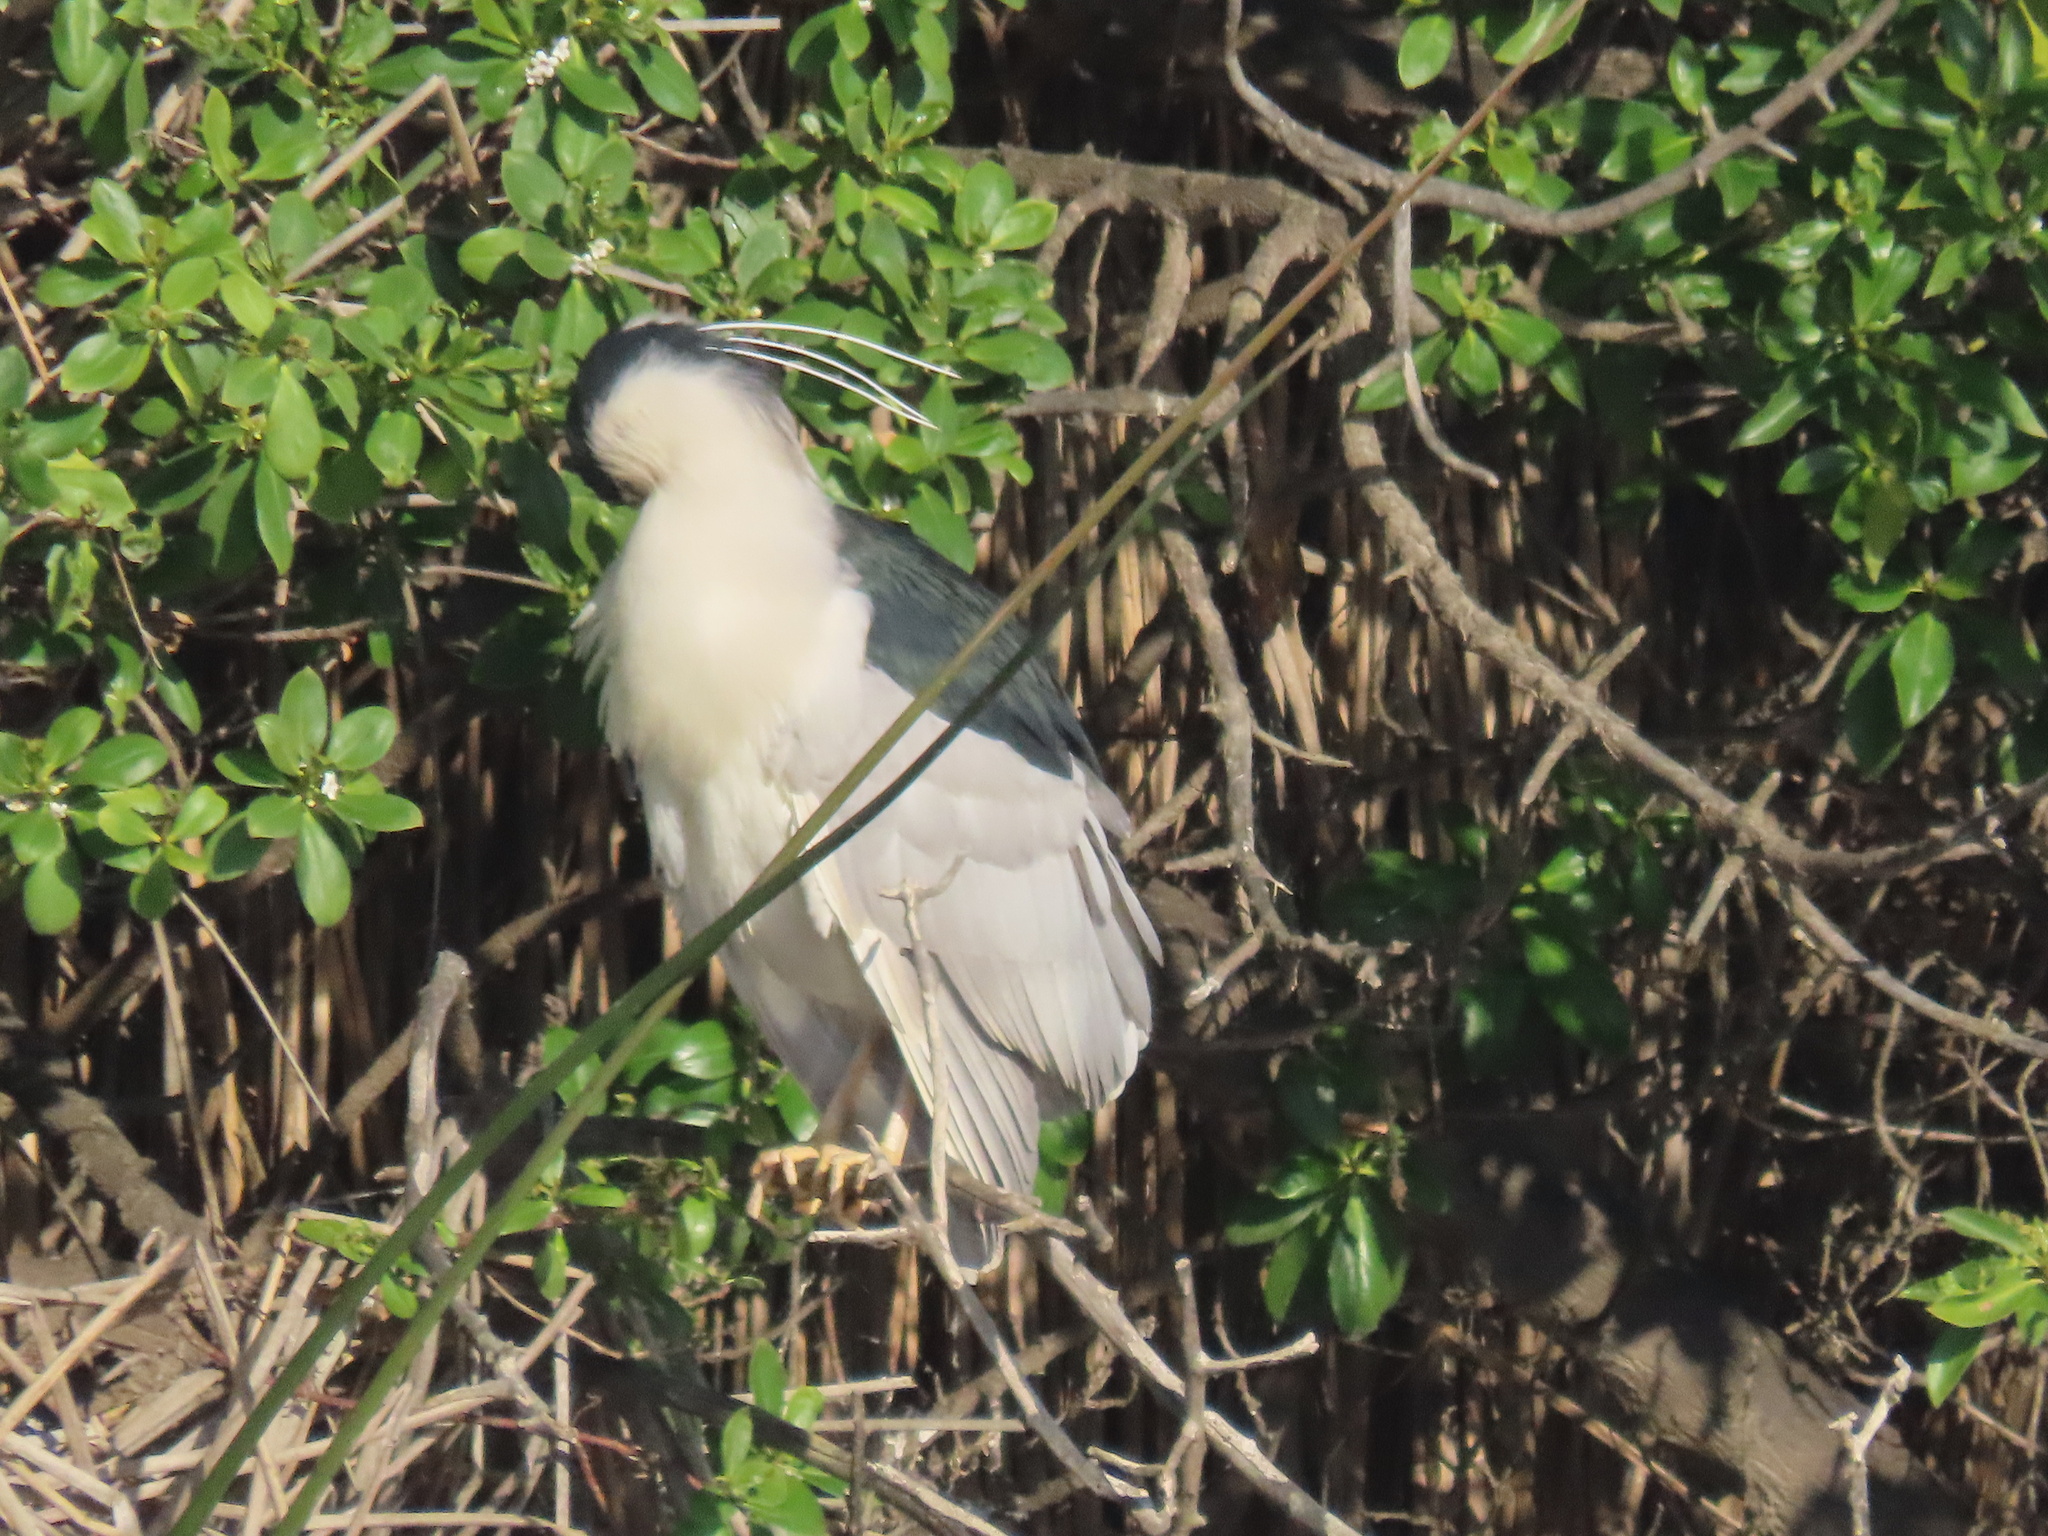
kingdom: Animalia
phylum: Chordata
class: Aves
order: Pelecaniformes
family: Ardeidae
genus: Nycticorax
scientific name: Nycticorax nycticorax
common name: Black-crowned night heron
